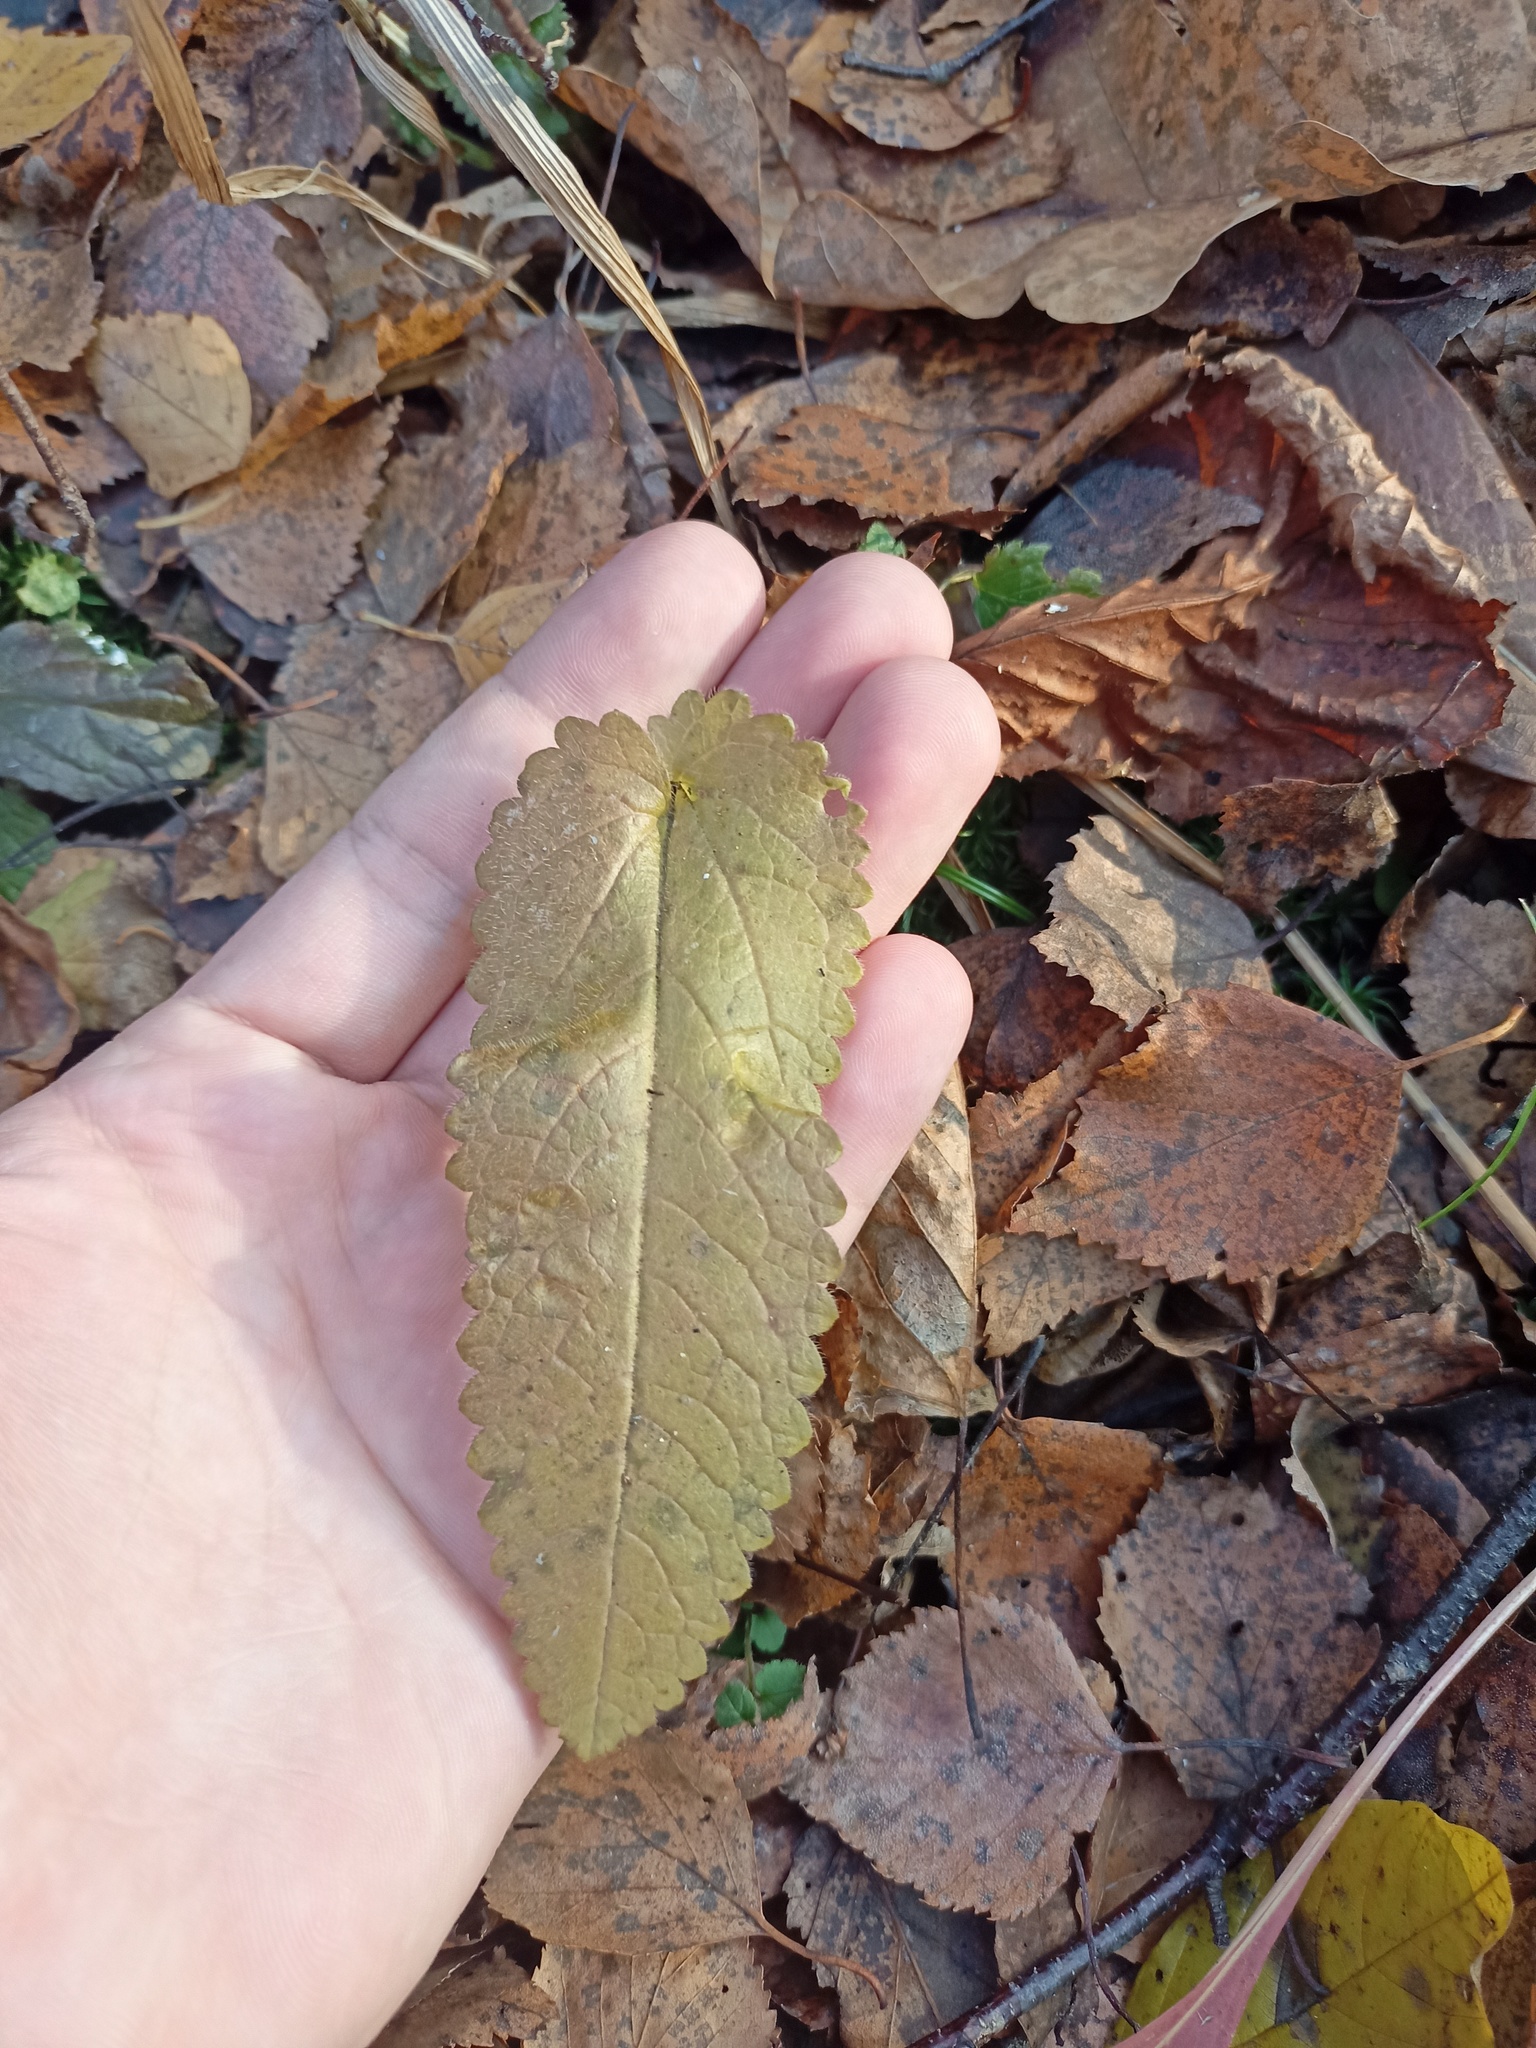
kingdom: Plantae
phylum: Tracheophyta
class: Magnoliopsida
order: Lamiales
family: Lamiaceae
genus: Betonica
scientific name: Betonica officinalis
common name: Bishop's-wort
